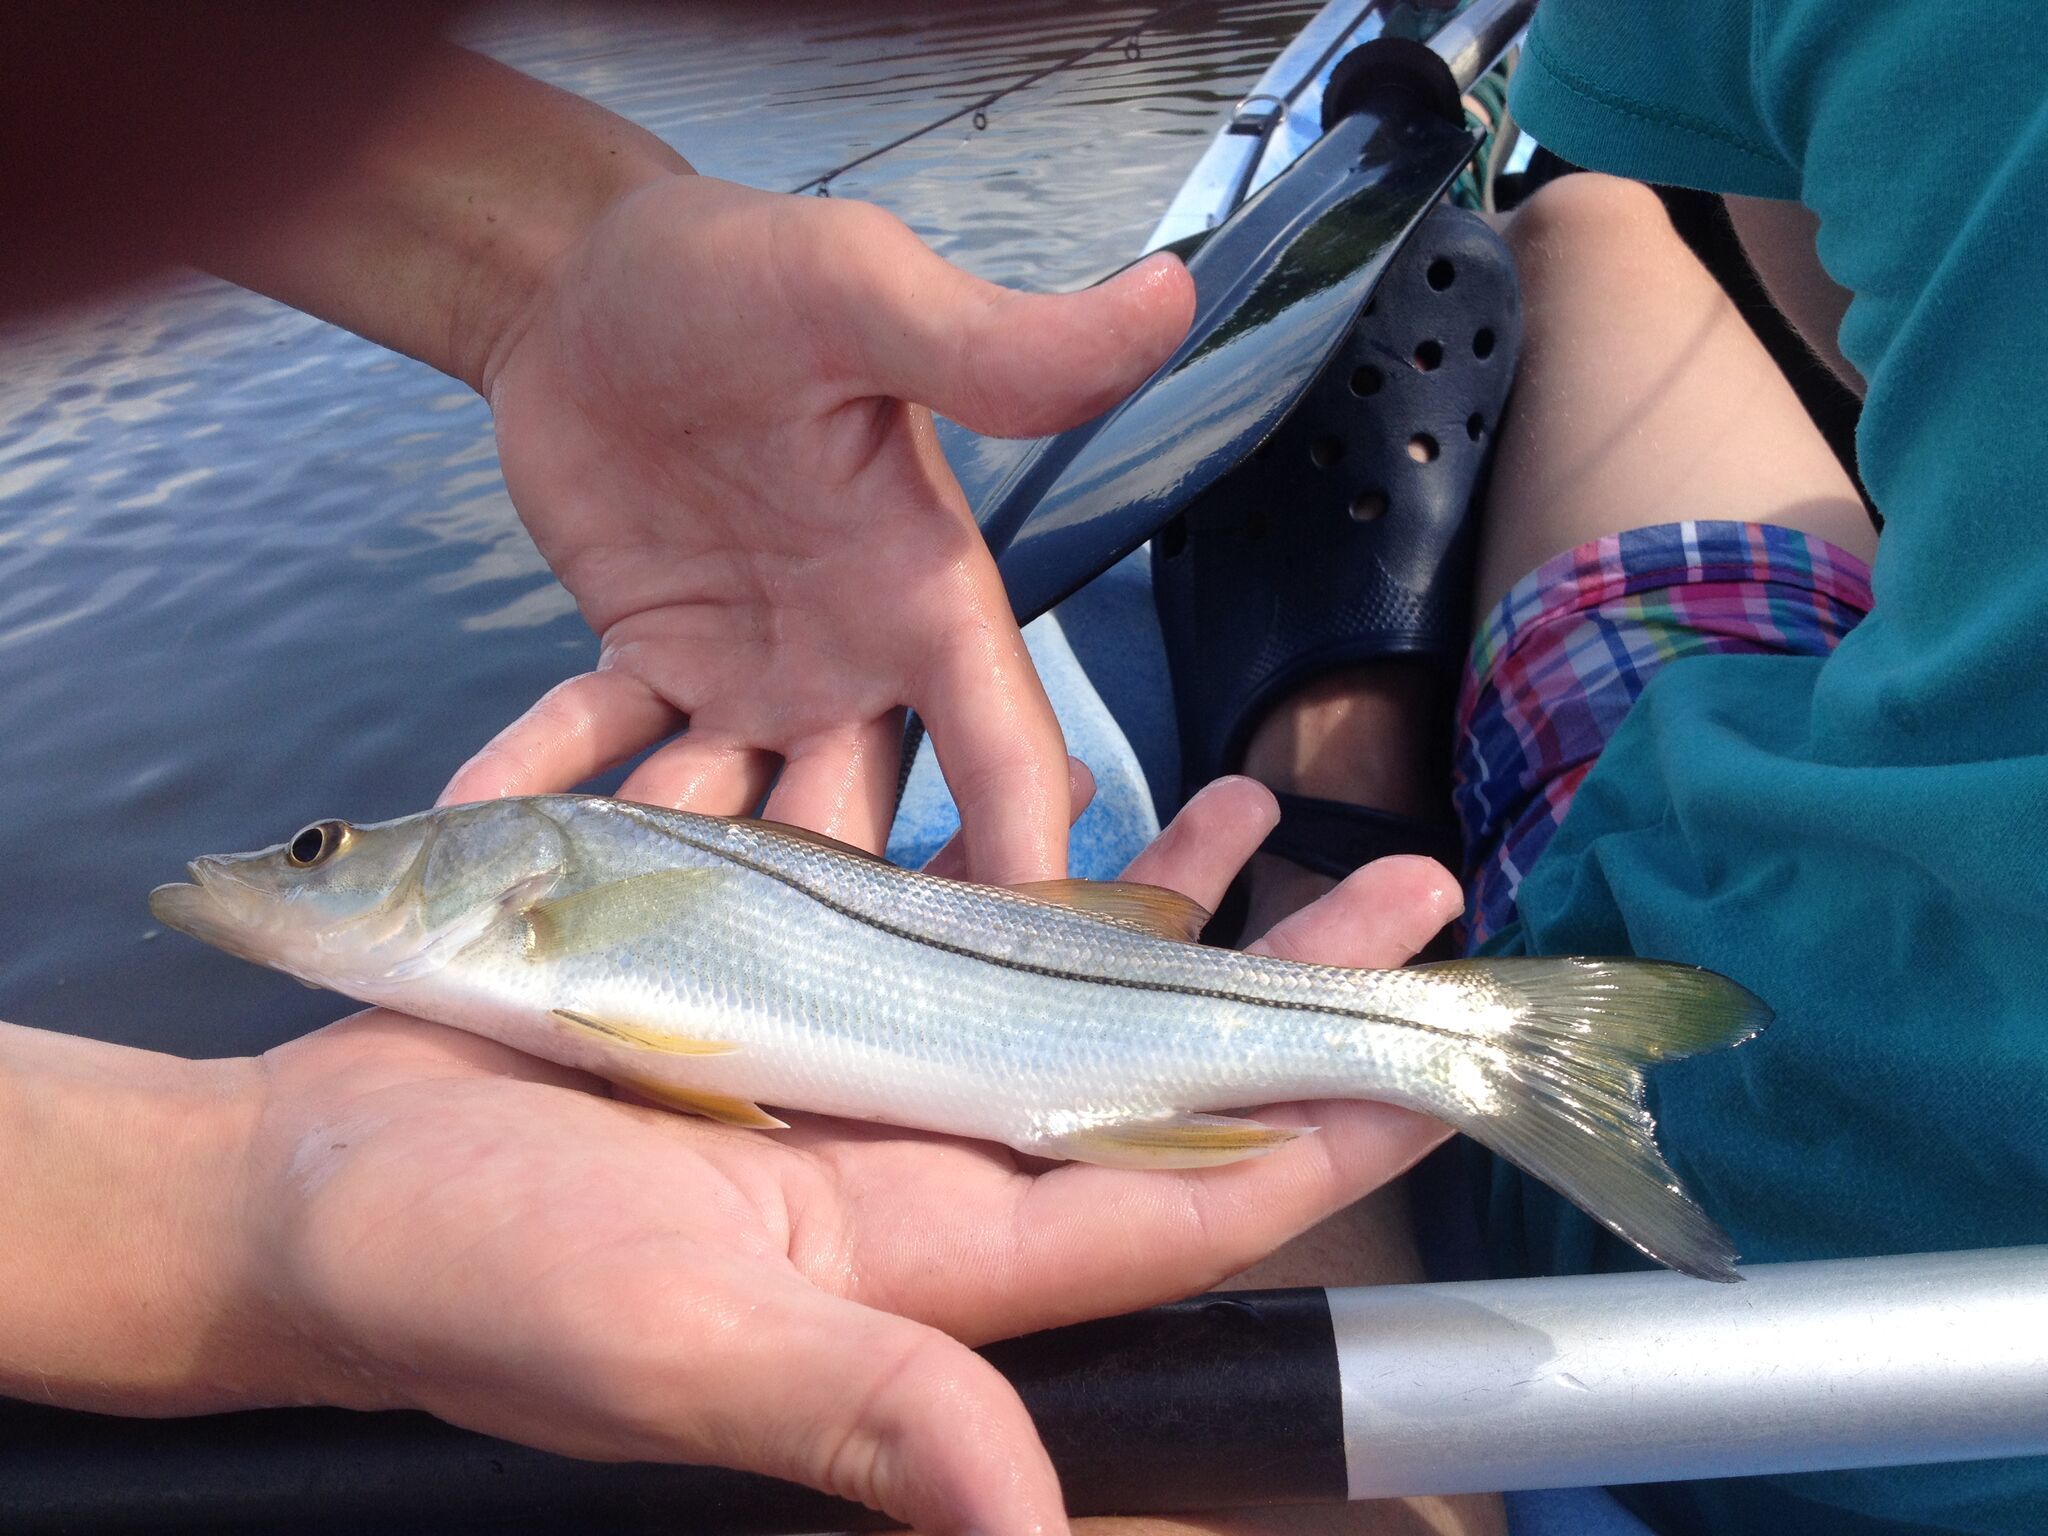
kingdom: Animalia
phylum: Chordata
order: Perciformes
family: Centropomidae
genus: Centropomus
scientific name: Centropomus undecimalis
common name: Snook
